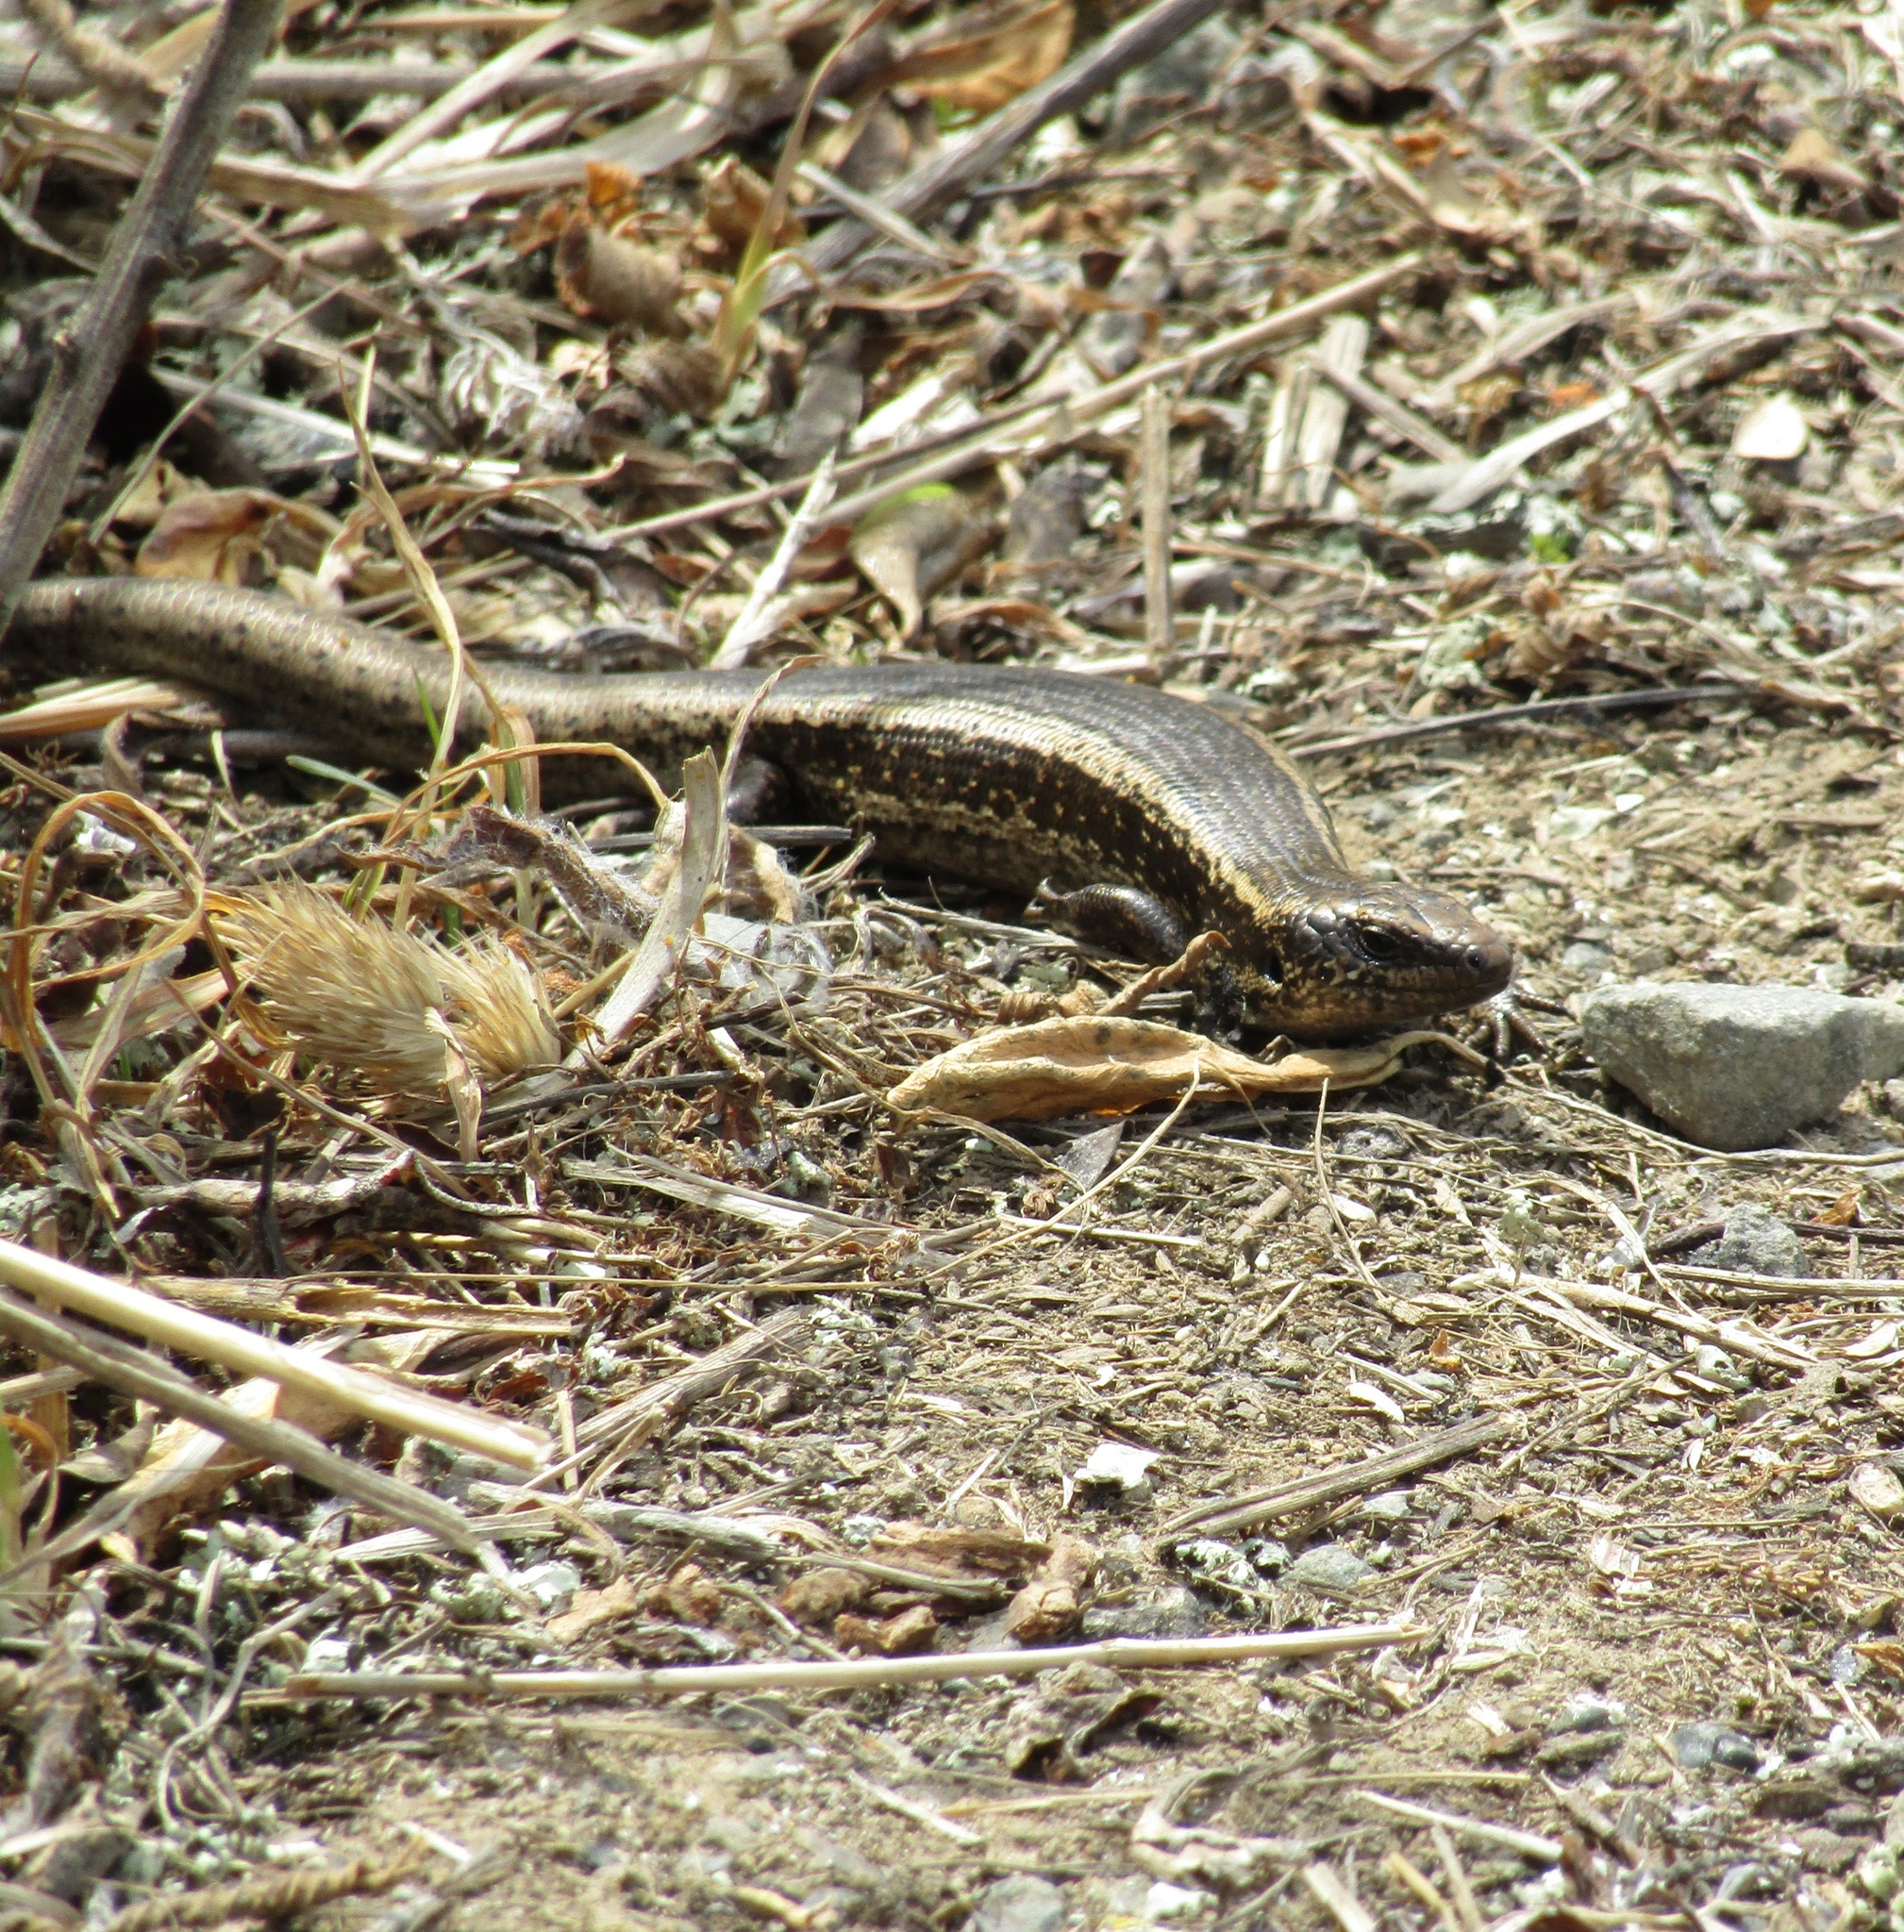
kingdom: Animalia
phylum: Chordata
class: Squamata
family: Scincidae
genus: Oligosoma
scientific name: Oligosoma kokowai
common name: Northern spotted skink
